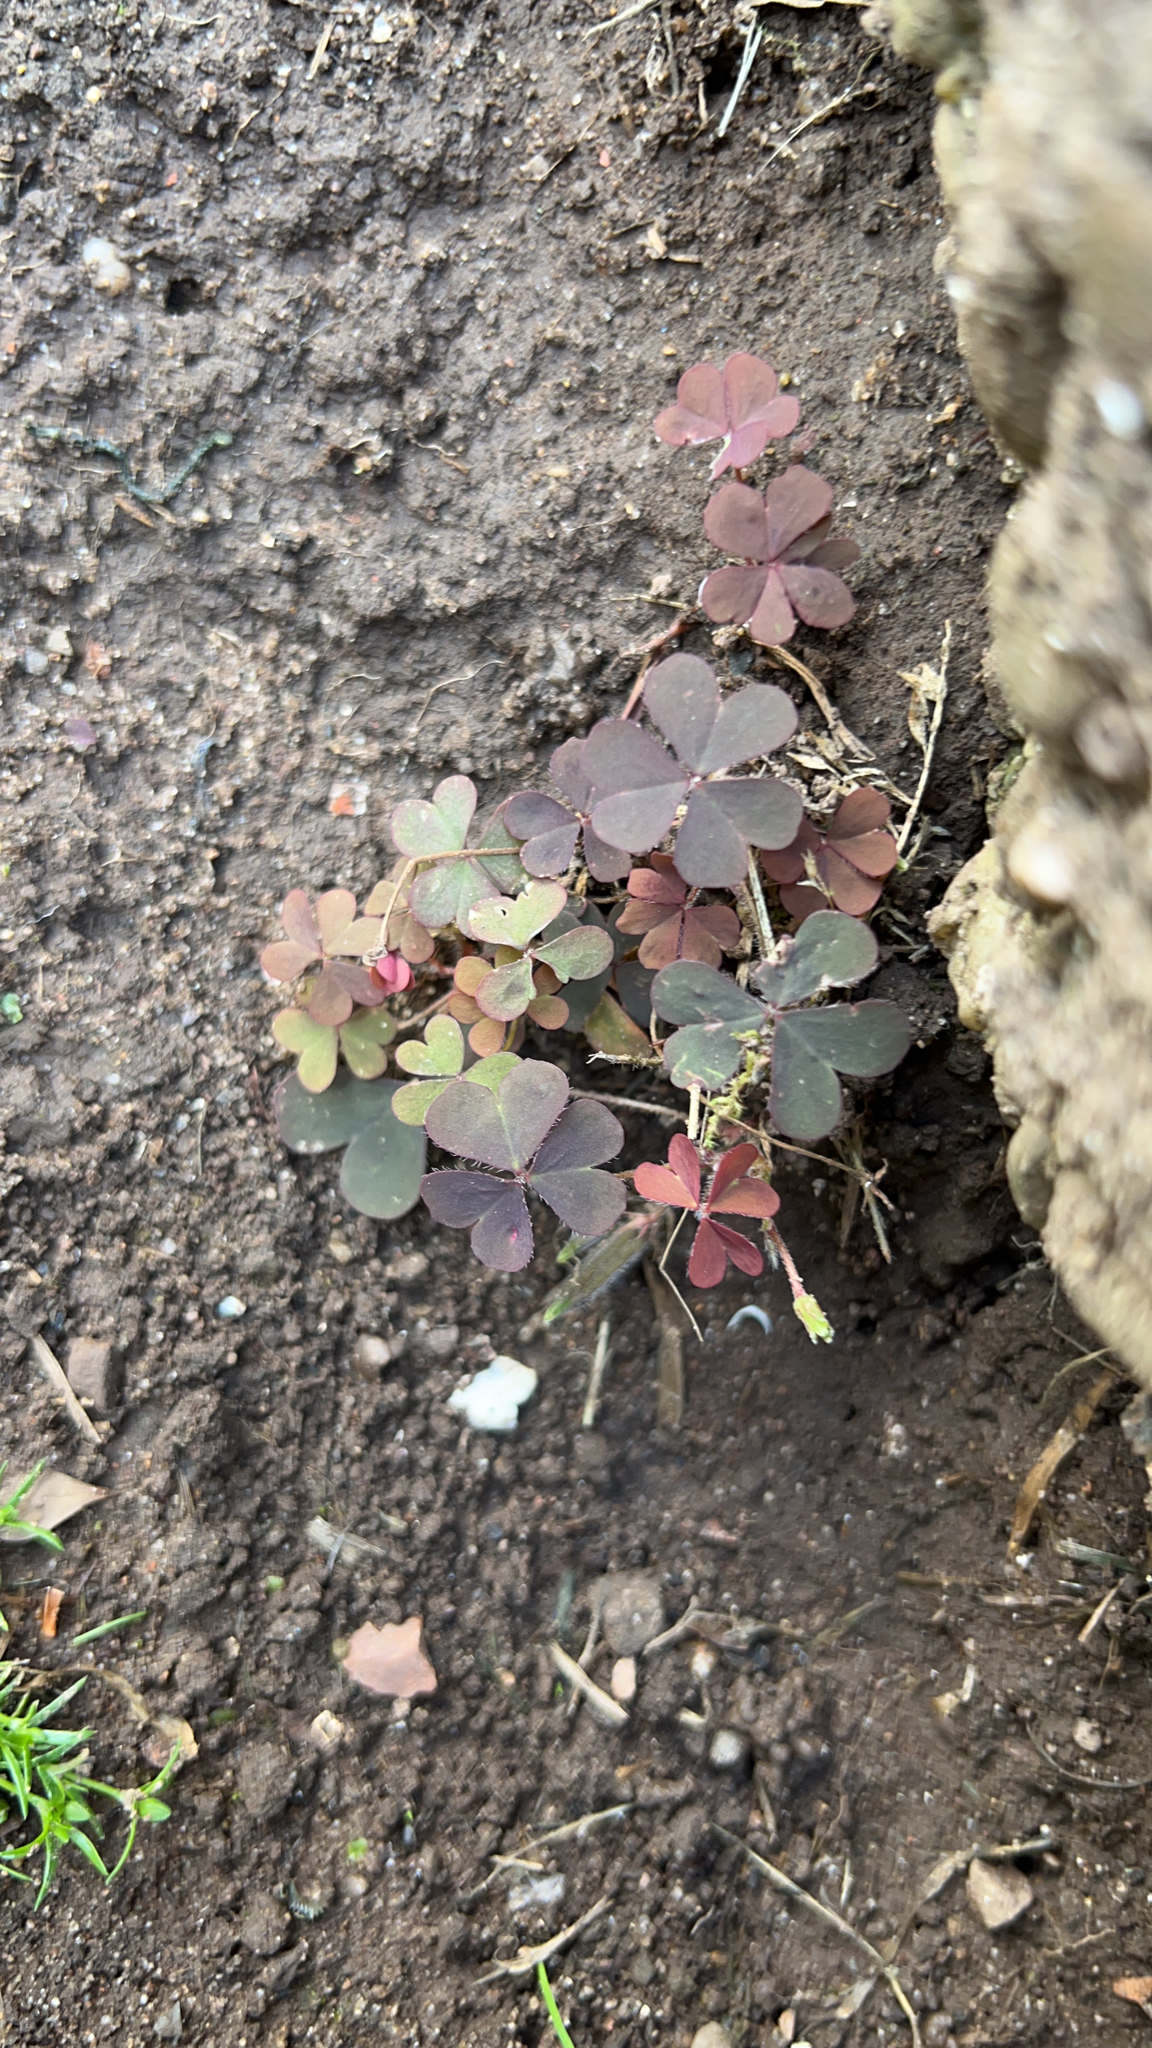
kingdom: Plantae
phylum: Tracheophyta
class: Magnoliopsida
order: Oxalidales
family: Oxalidaceae
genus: Oxalis
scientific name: Oxalis corniculata
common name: Procumbent yellow-sorrel
